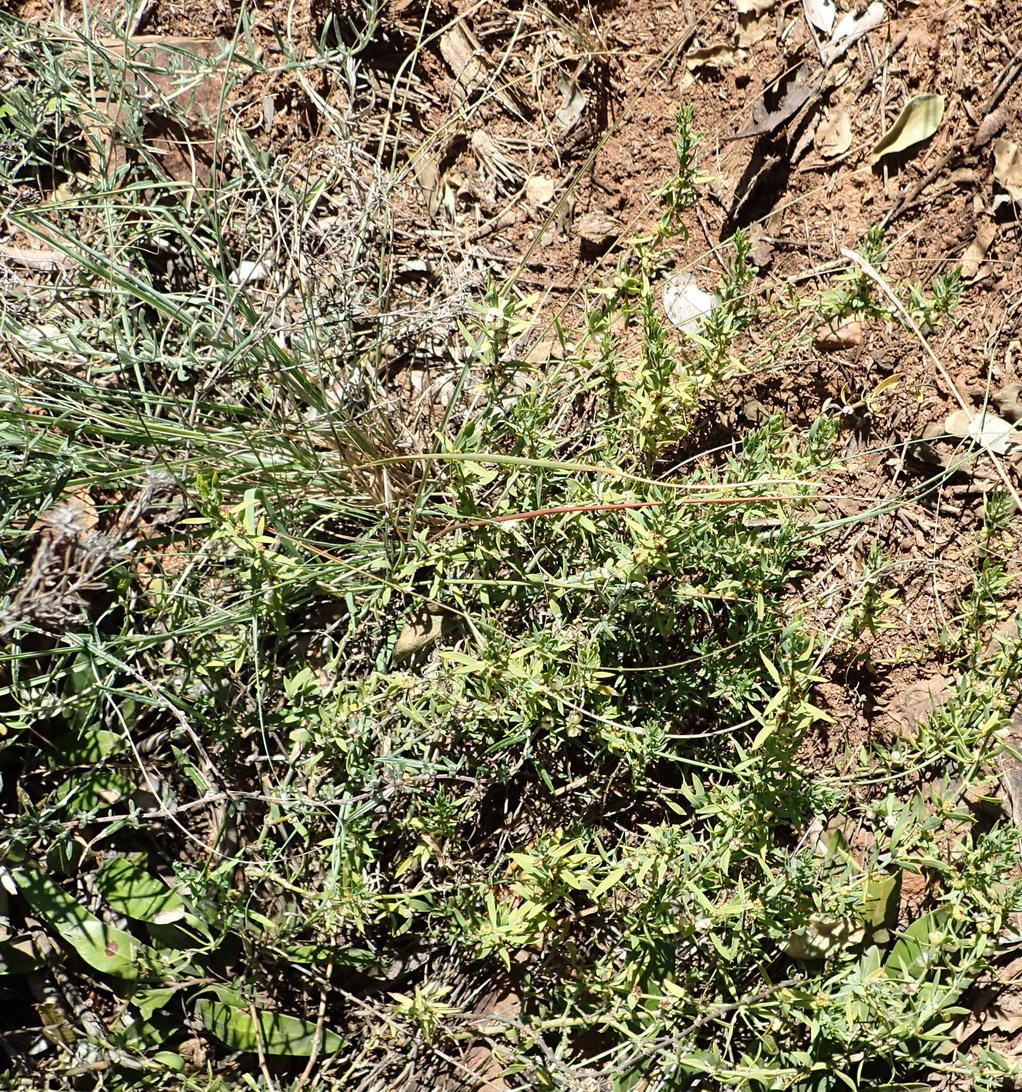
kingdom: Plantae
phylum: Tracheophyta
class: Magnoliopsida
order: Caryophyllales
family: Caryophyllaceae
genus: Pollichia
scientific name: Pollichia campestris
